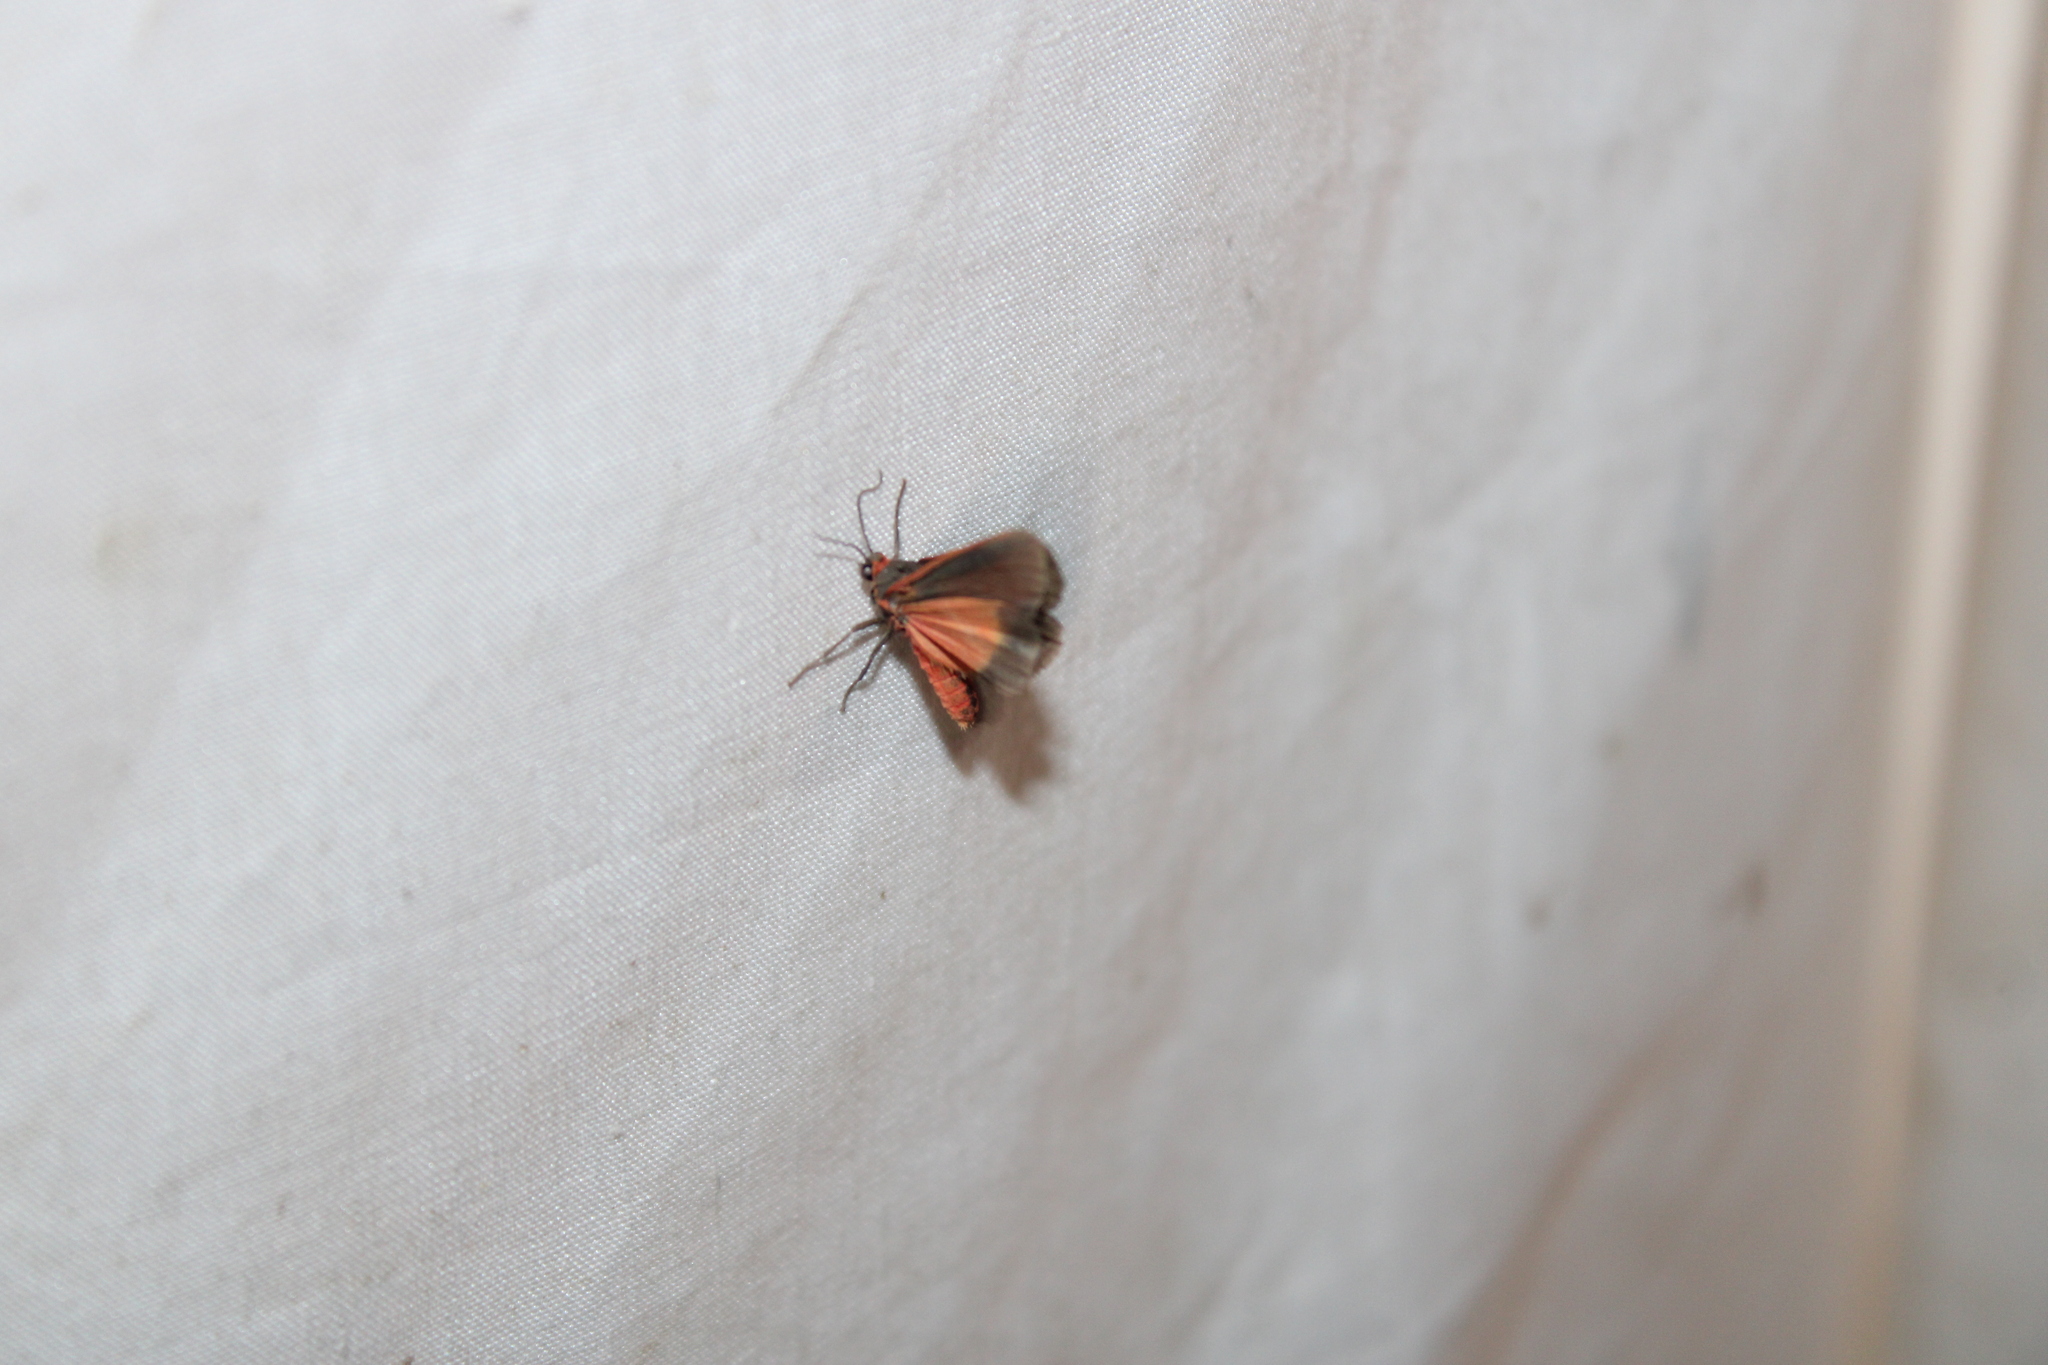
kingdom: Animalia
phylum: Arthropoda
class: Insecta
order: Lepidoptera
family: Erebidae
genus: Virbia
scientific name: Virbia laeta
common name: Joyful holomelina moth
